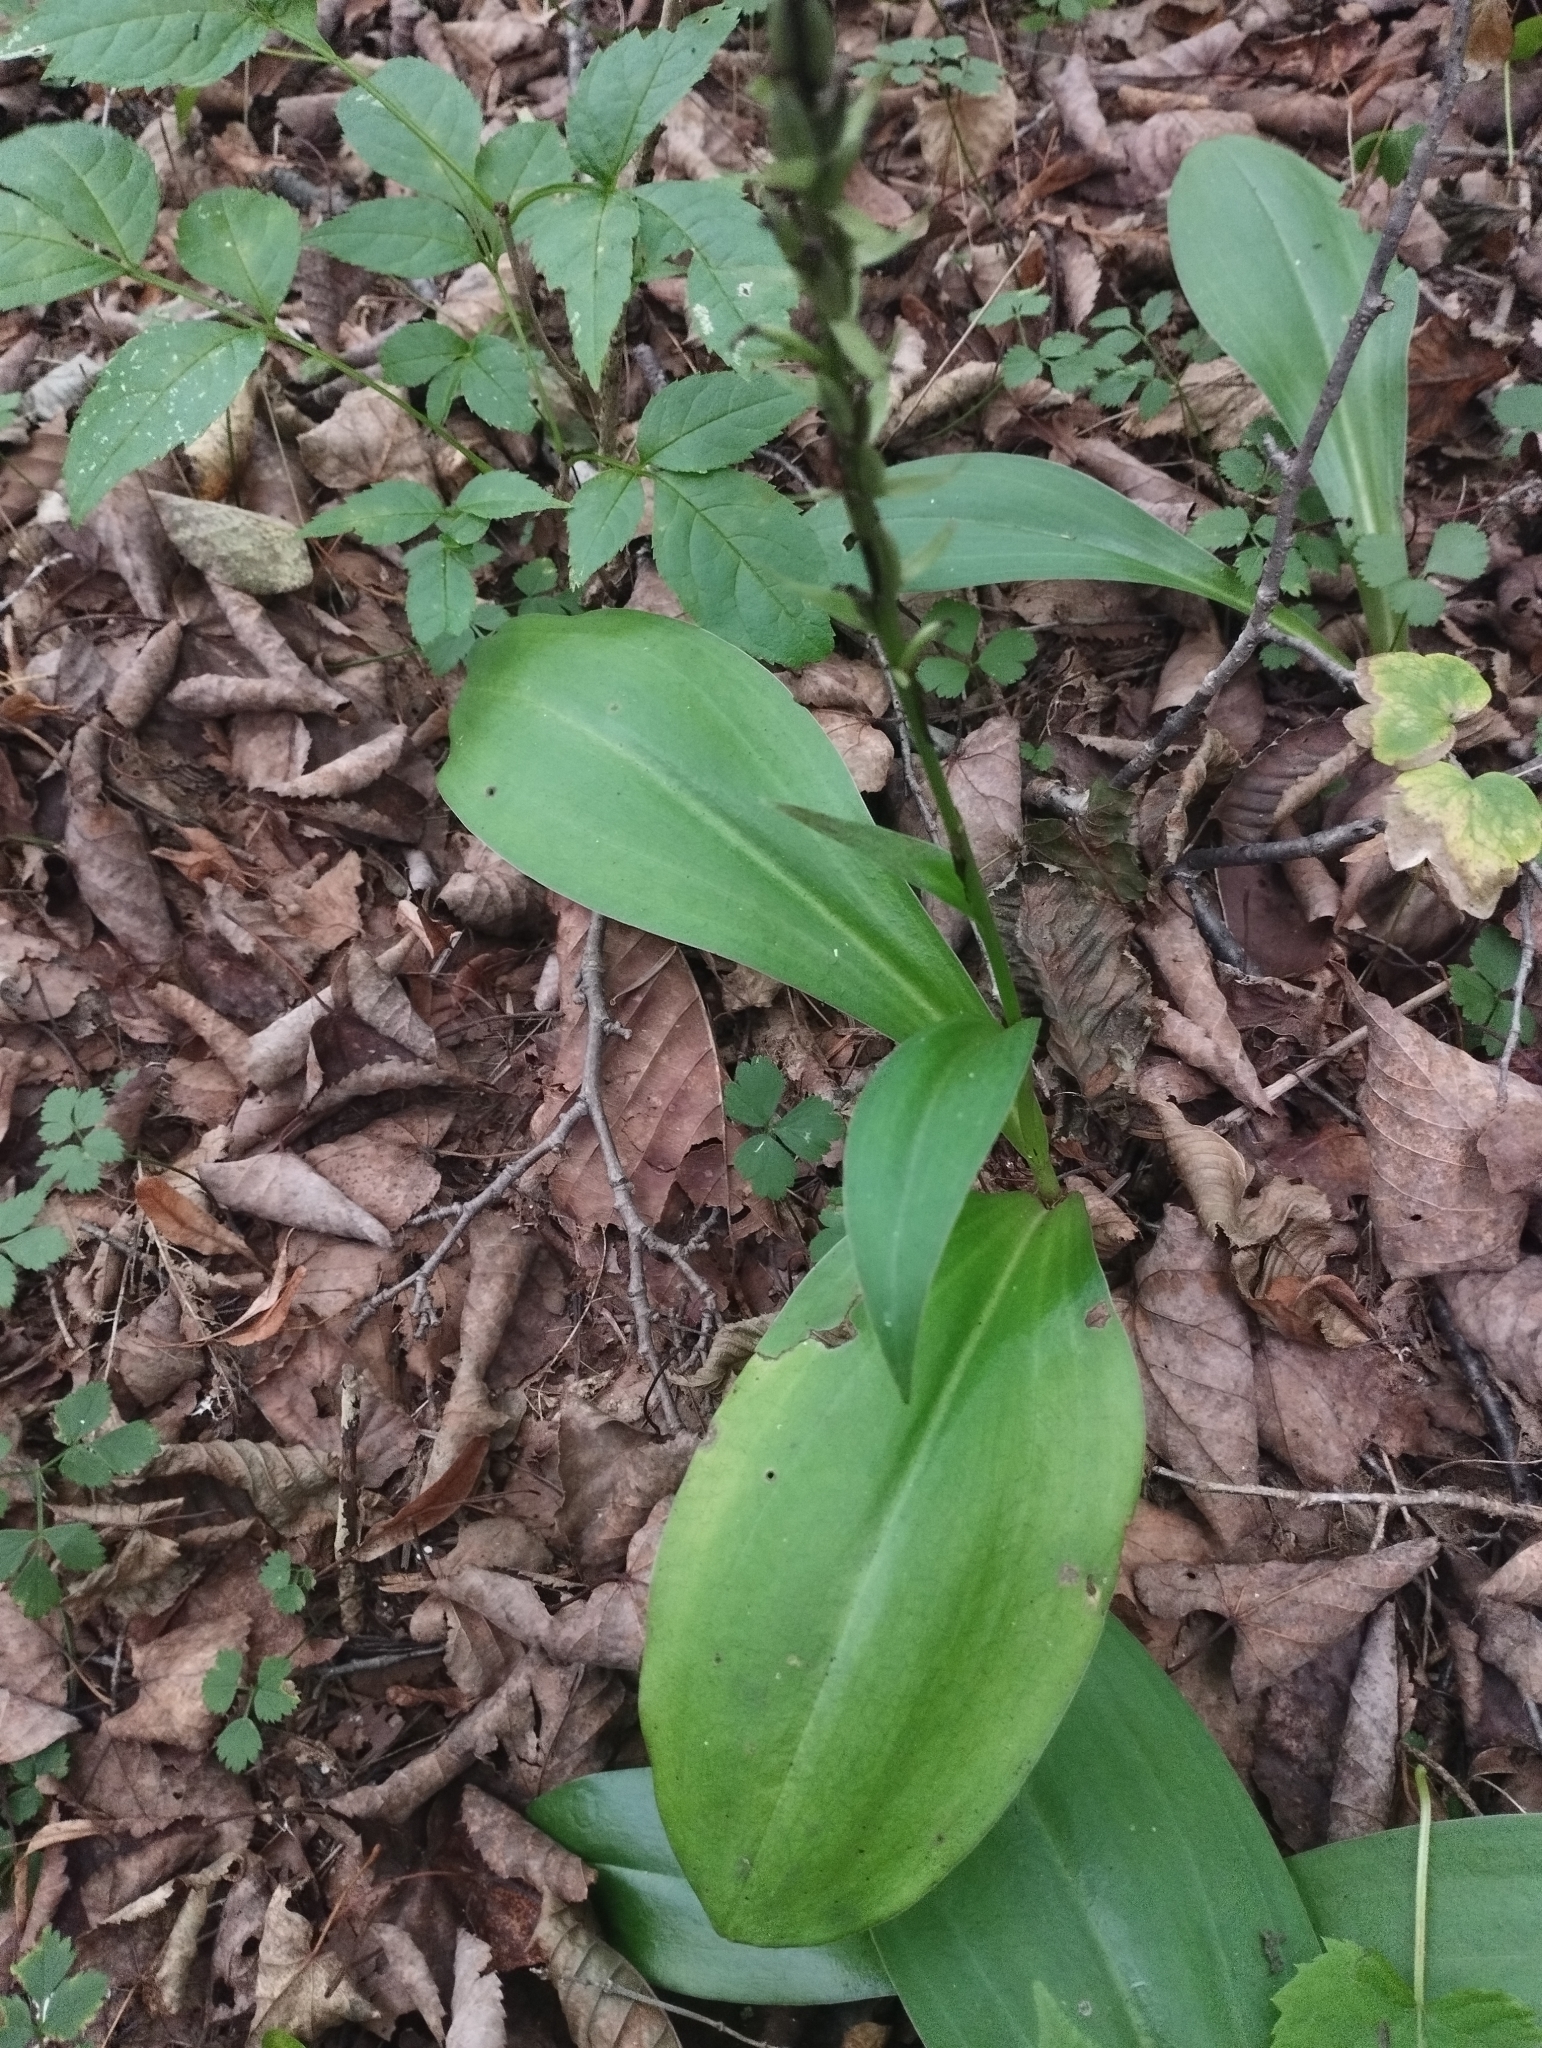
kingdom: Plantae
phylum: Tracheophyta
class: Liliopsida
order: Asparagales
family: Orchidaceae
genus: Platanthera
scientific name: Platanthera fuscescens
